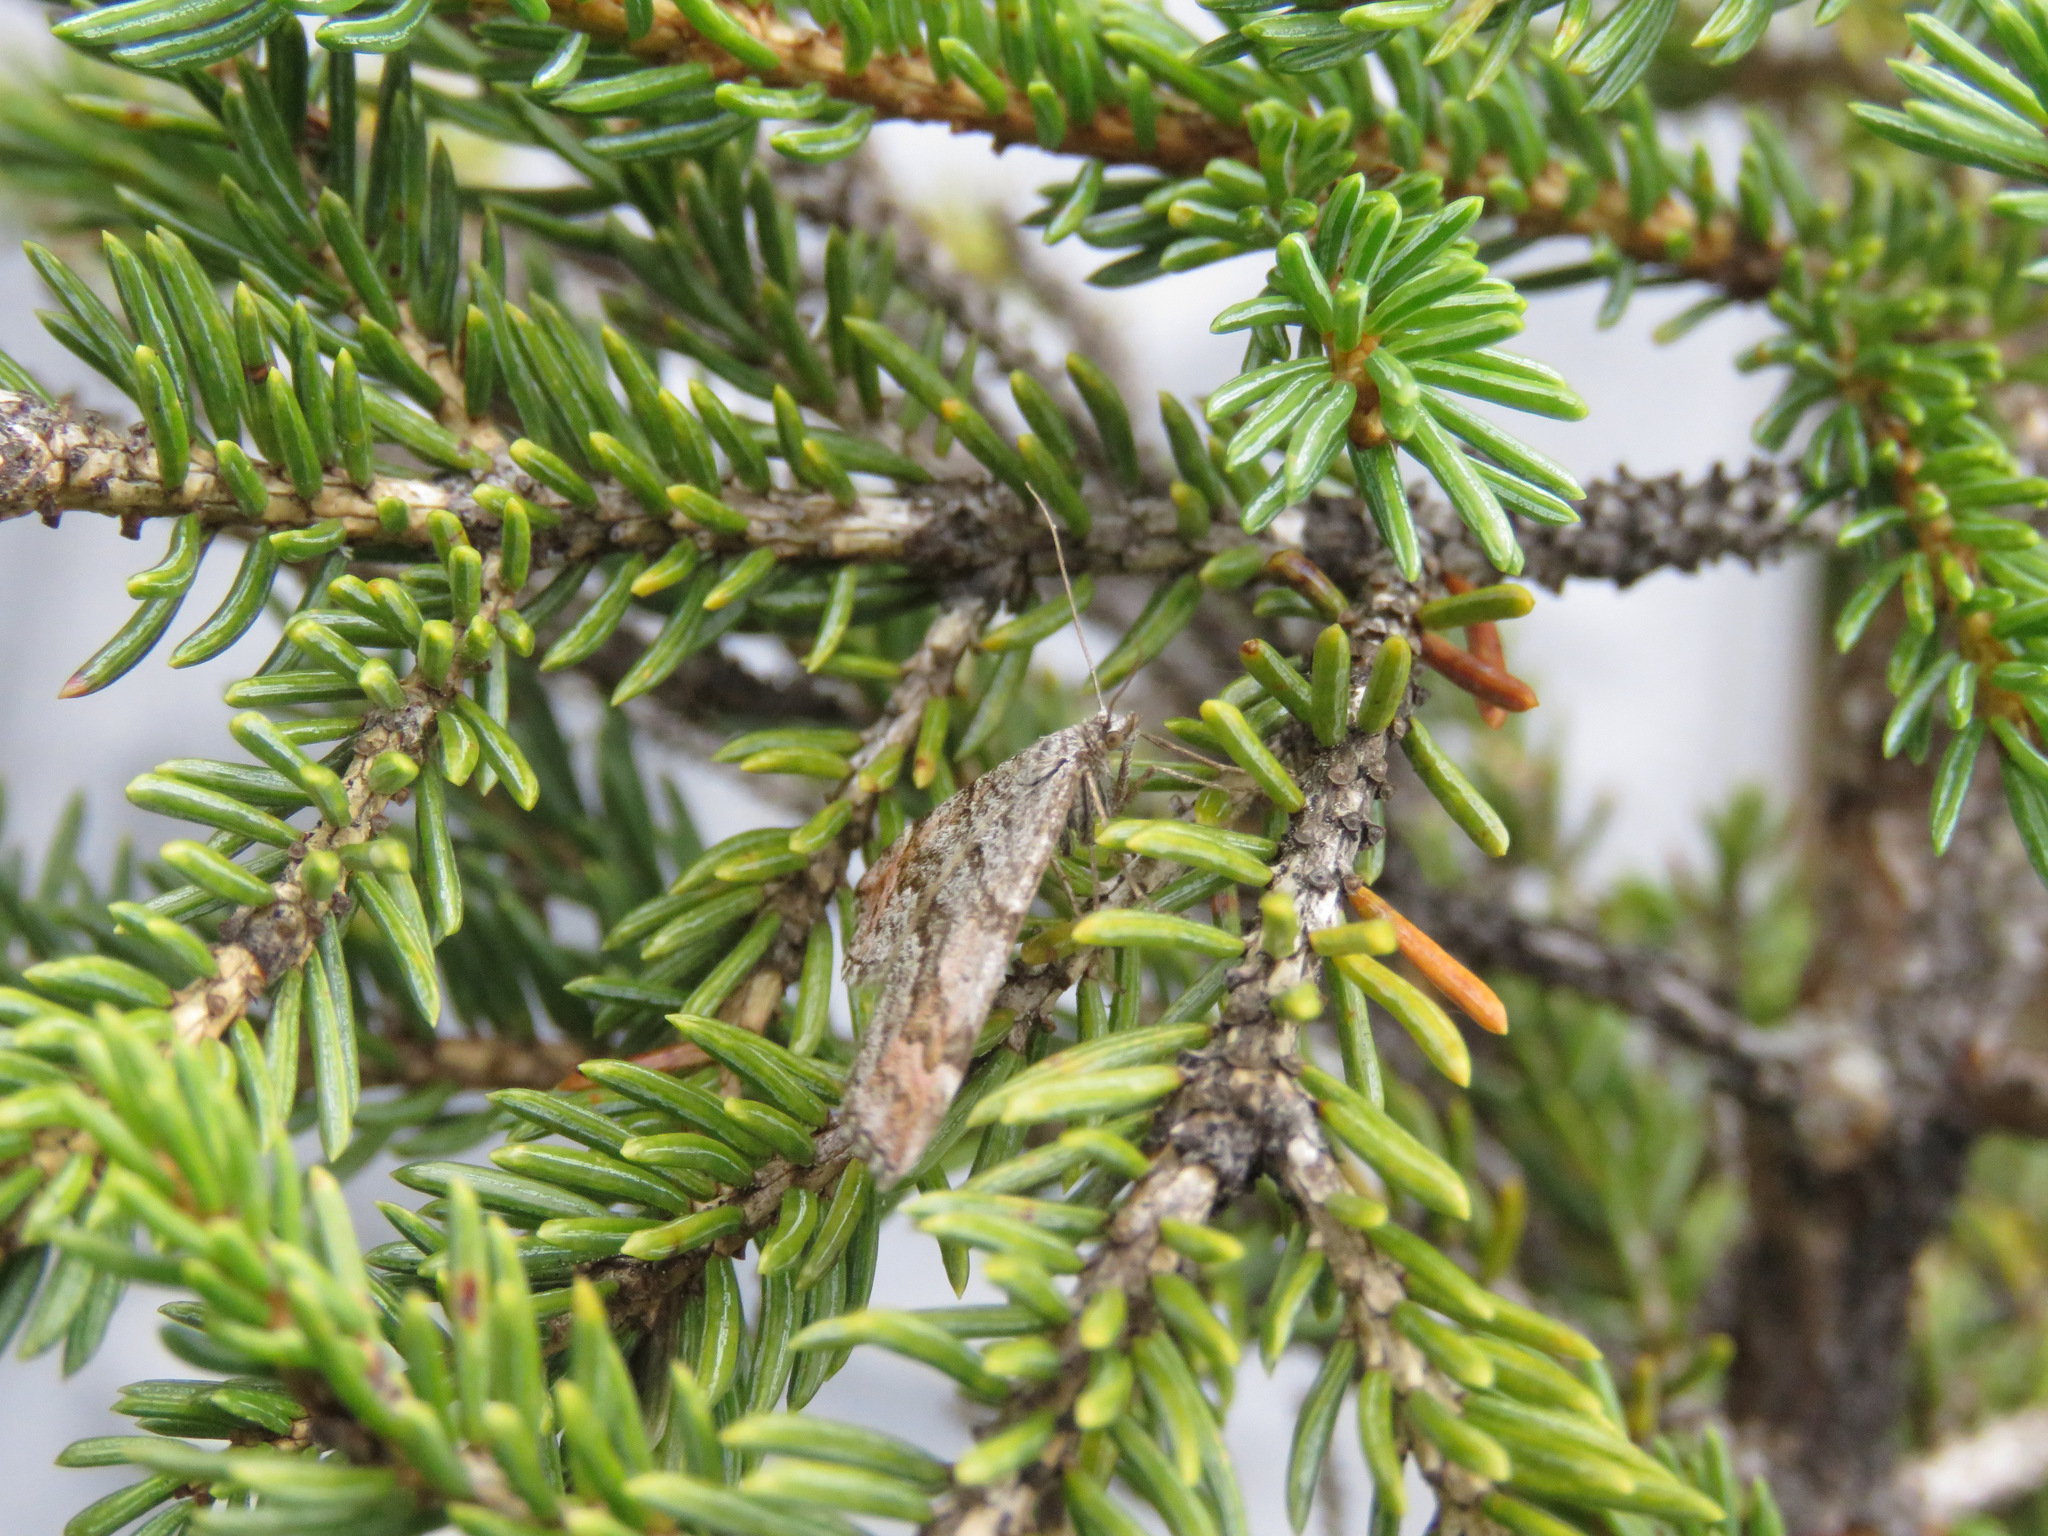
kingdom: Animalia
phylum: Arthropoda
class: Insecta
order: Lepidoptera
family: Geometridae
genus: Carsia
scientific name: Carsia sororiata
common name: Manchester treble-bar
